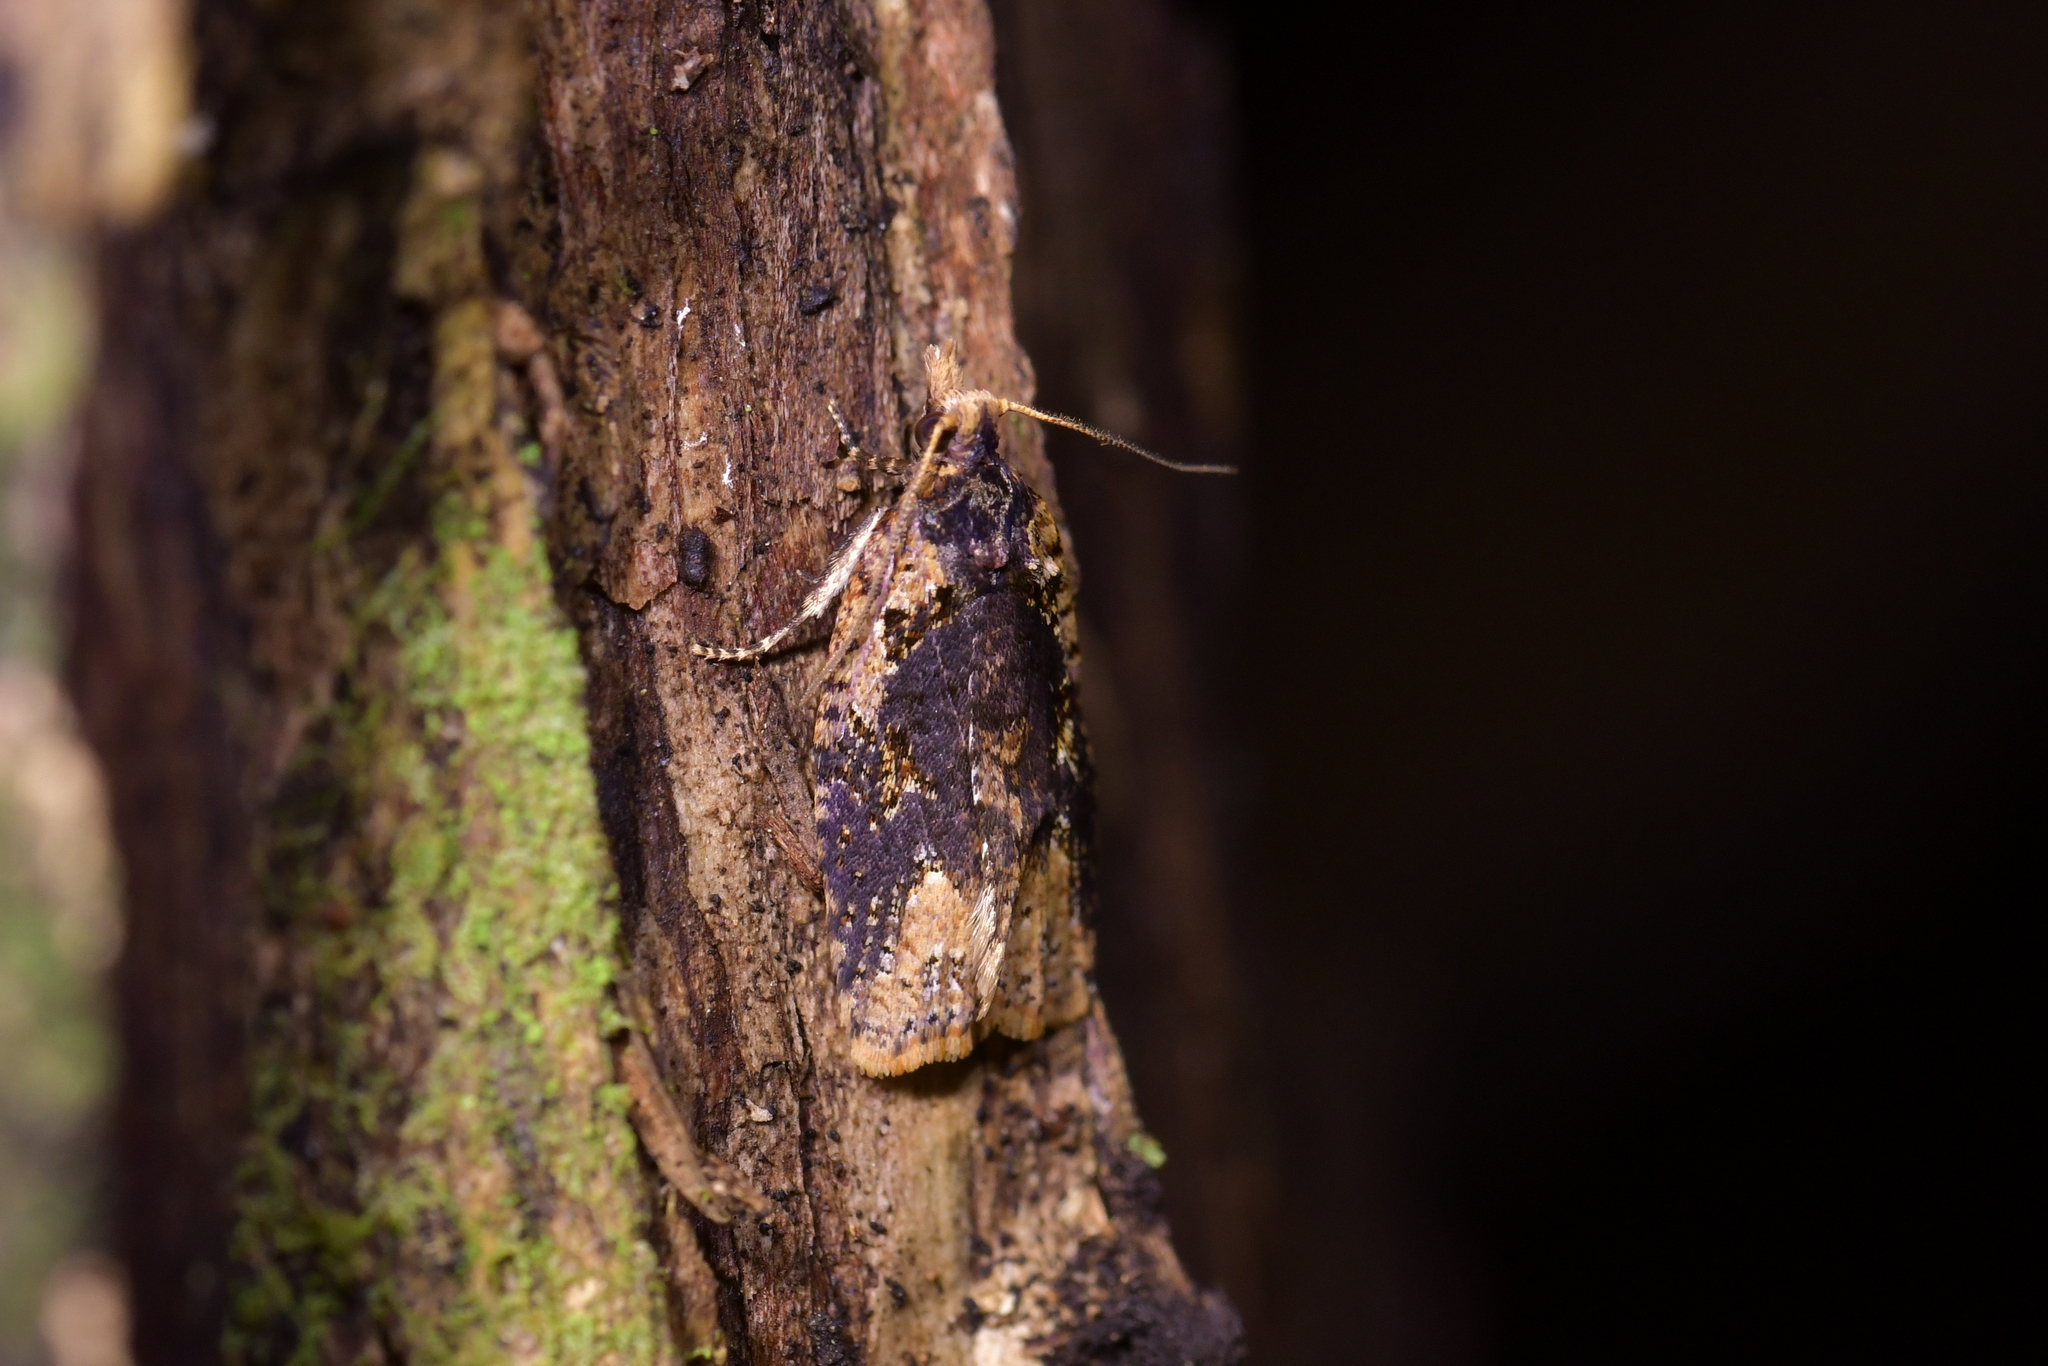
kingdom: Animalia
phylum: Arthropoda
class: Insecta
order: Lepidoptera
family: Tortricidae
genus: Ctenopseustis
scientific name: Ctenopseustis obliquana
